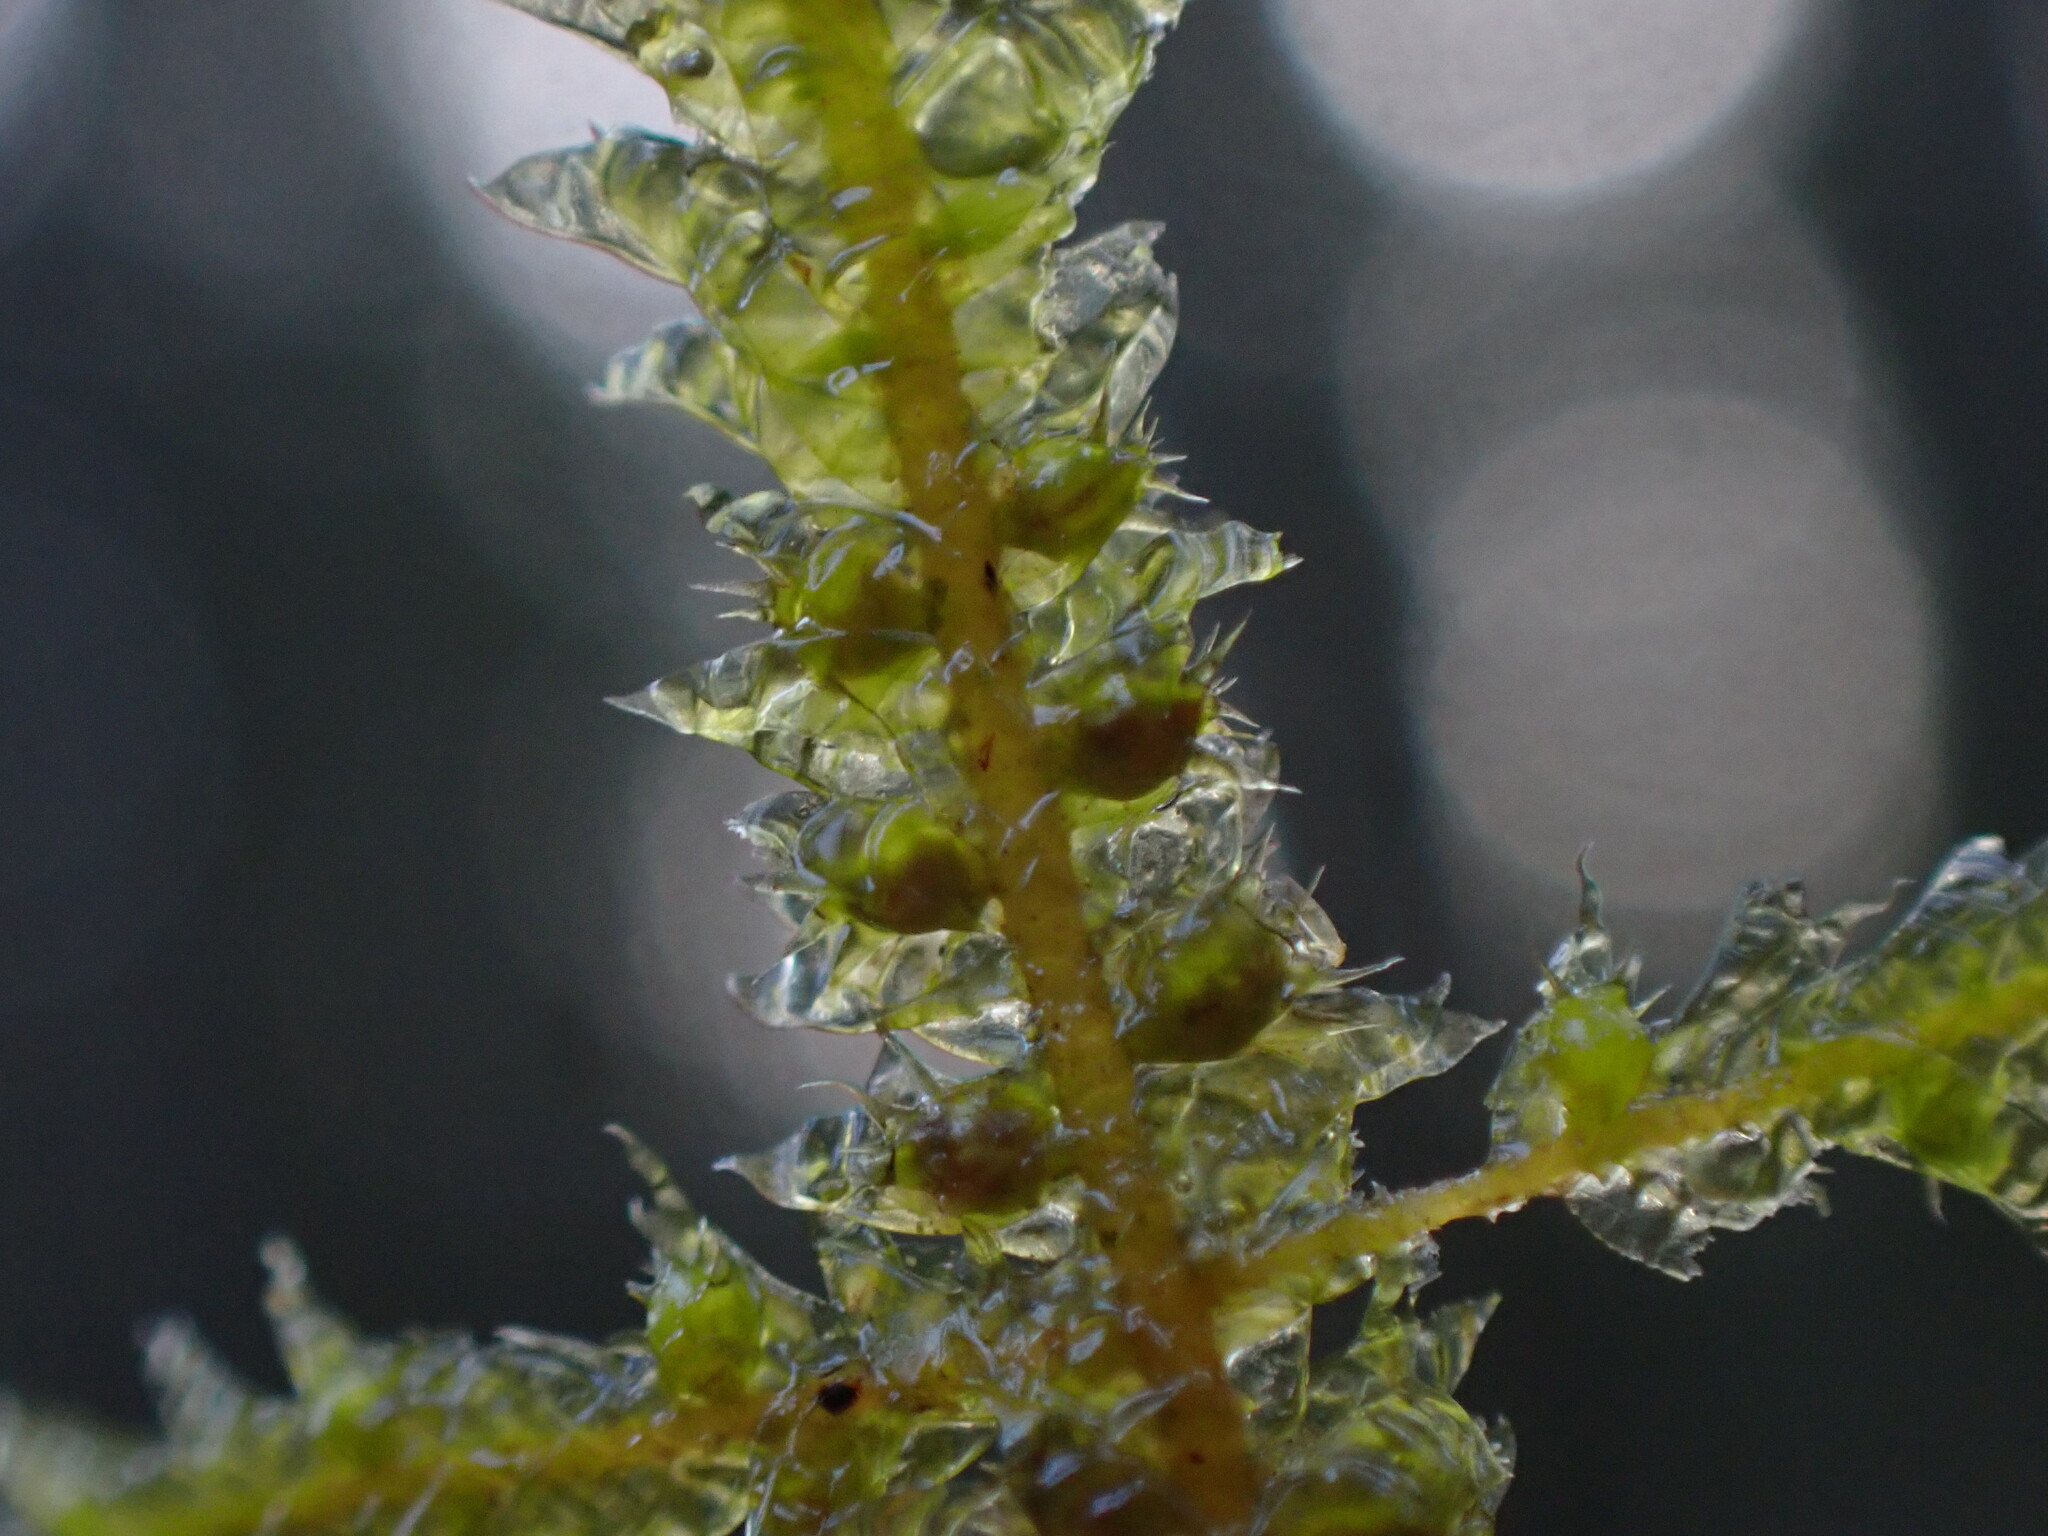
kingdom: Plantae
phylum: Bryophyta
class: Bryopsida
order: Hypnales
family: Neckeraceae
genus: Neckera
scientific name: Neckera douglasii
